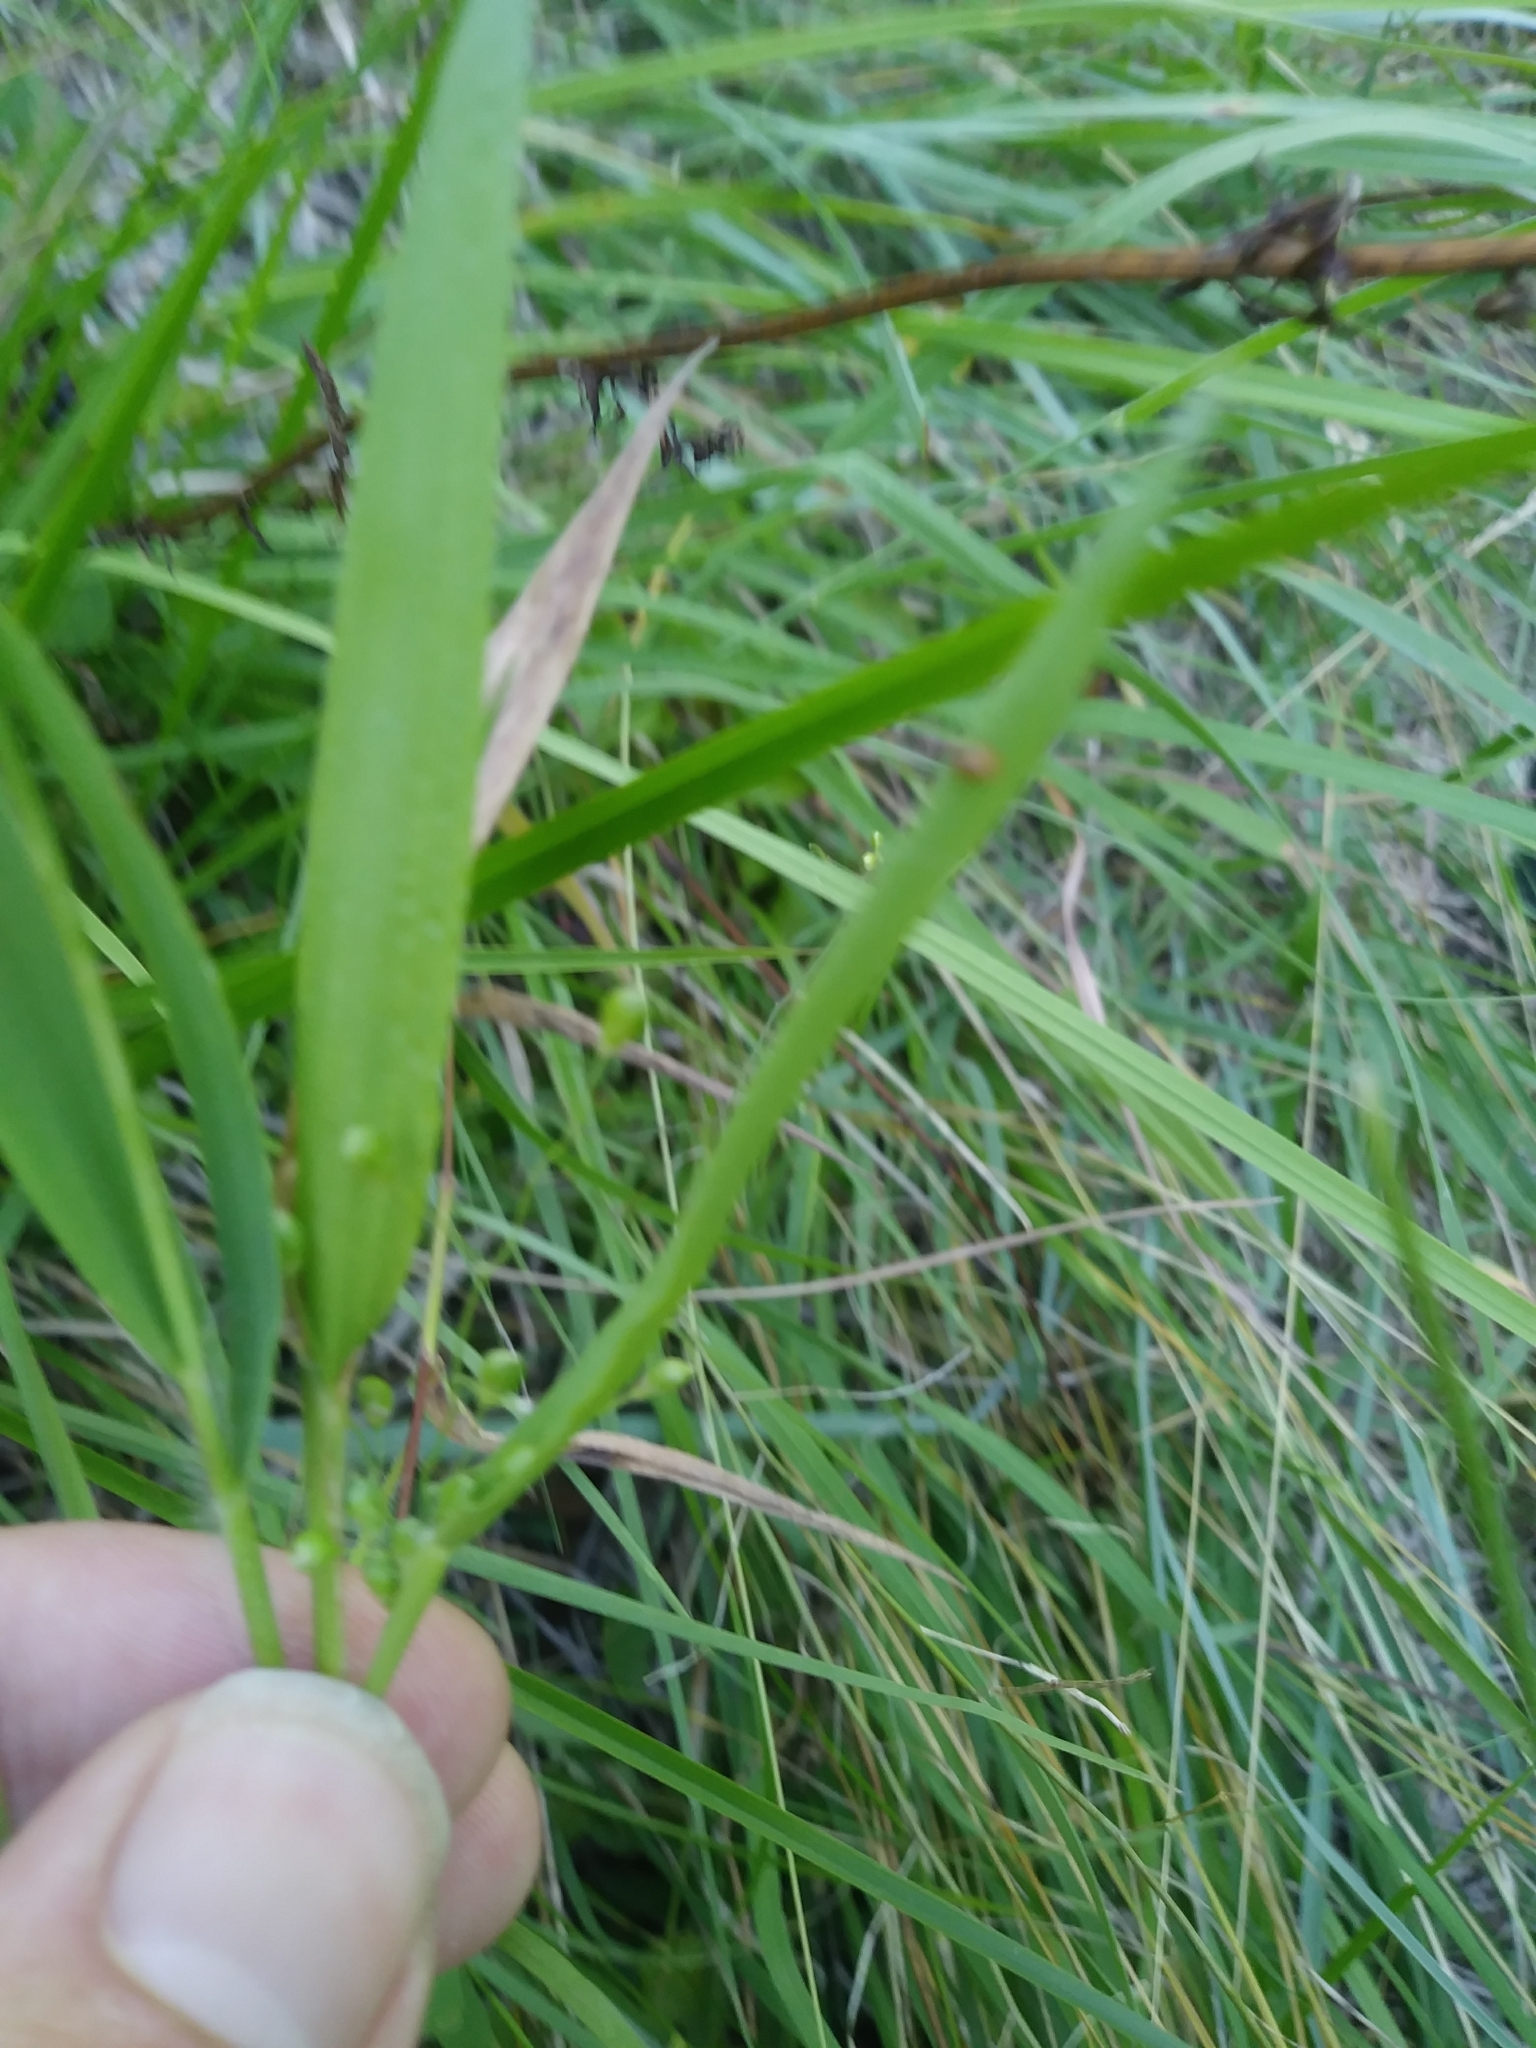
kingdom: Plantae
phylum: Tracheophyta
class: Liliopsida
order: Poales
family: Poaceae
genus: Dichanthelium
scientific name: Dichanthelium scribnerianum
